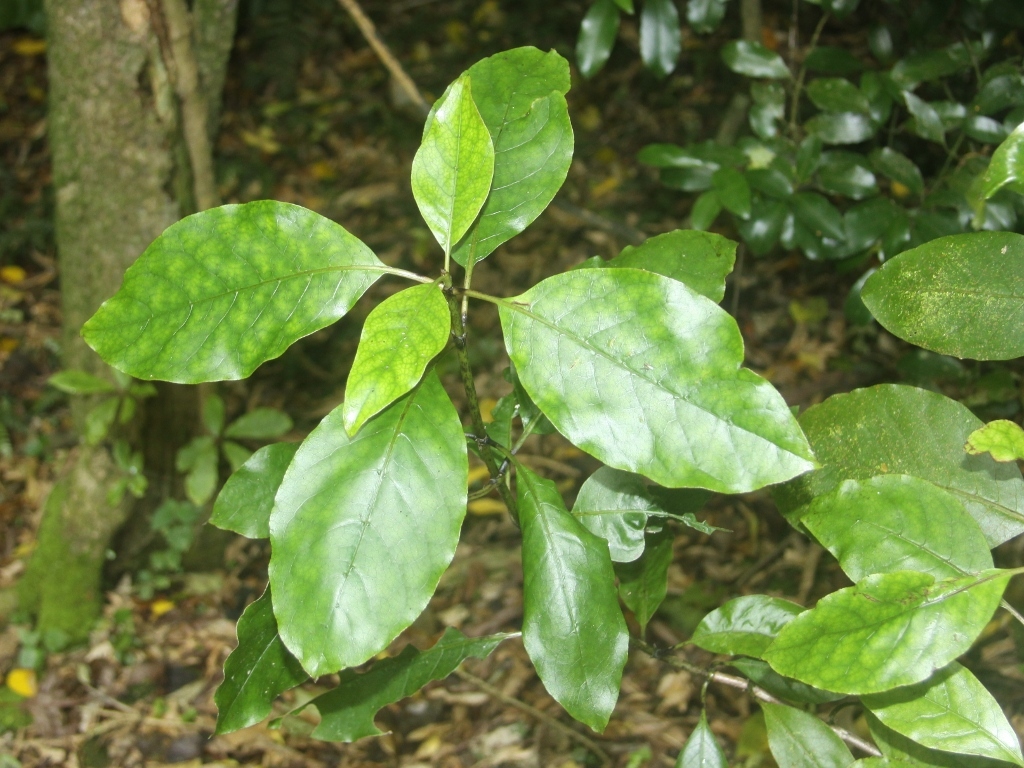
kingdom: Plantae
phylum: Tracheophyta
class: Magnoliopsida
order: Gentianales
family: Rubiaceae
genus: Coprosma
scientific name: Coprosma autumnalis
